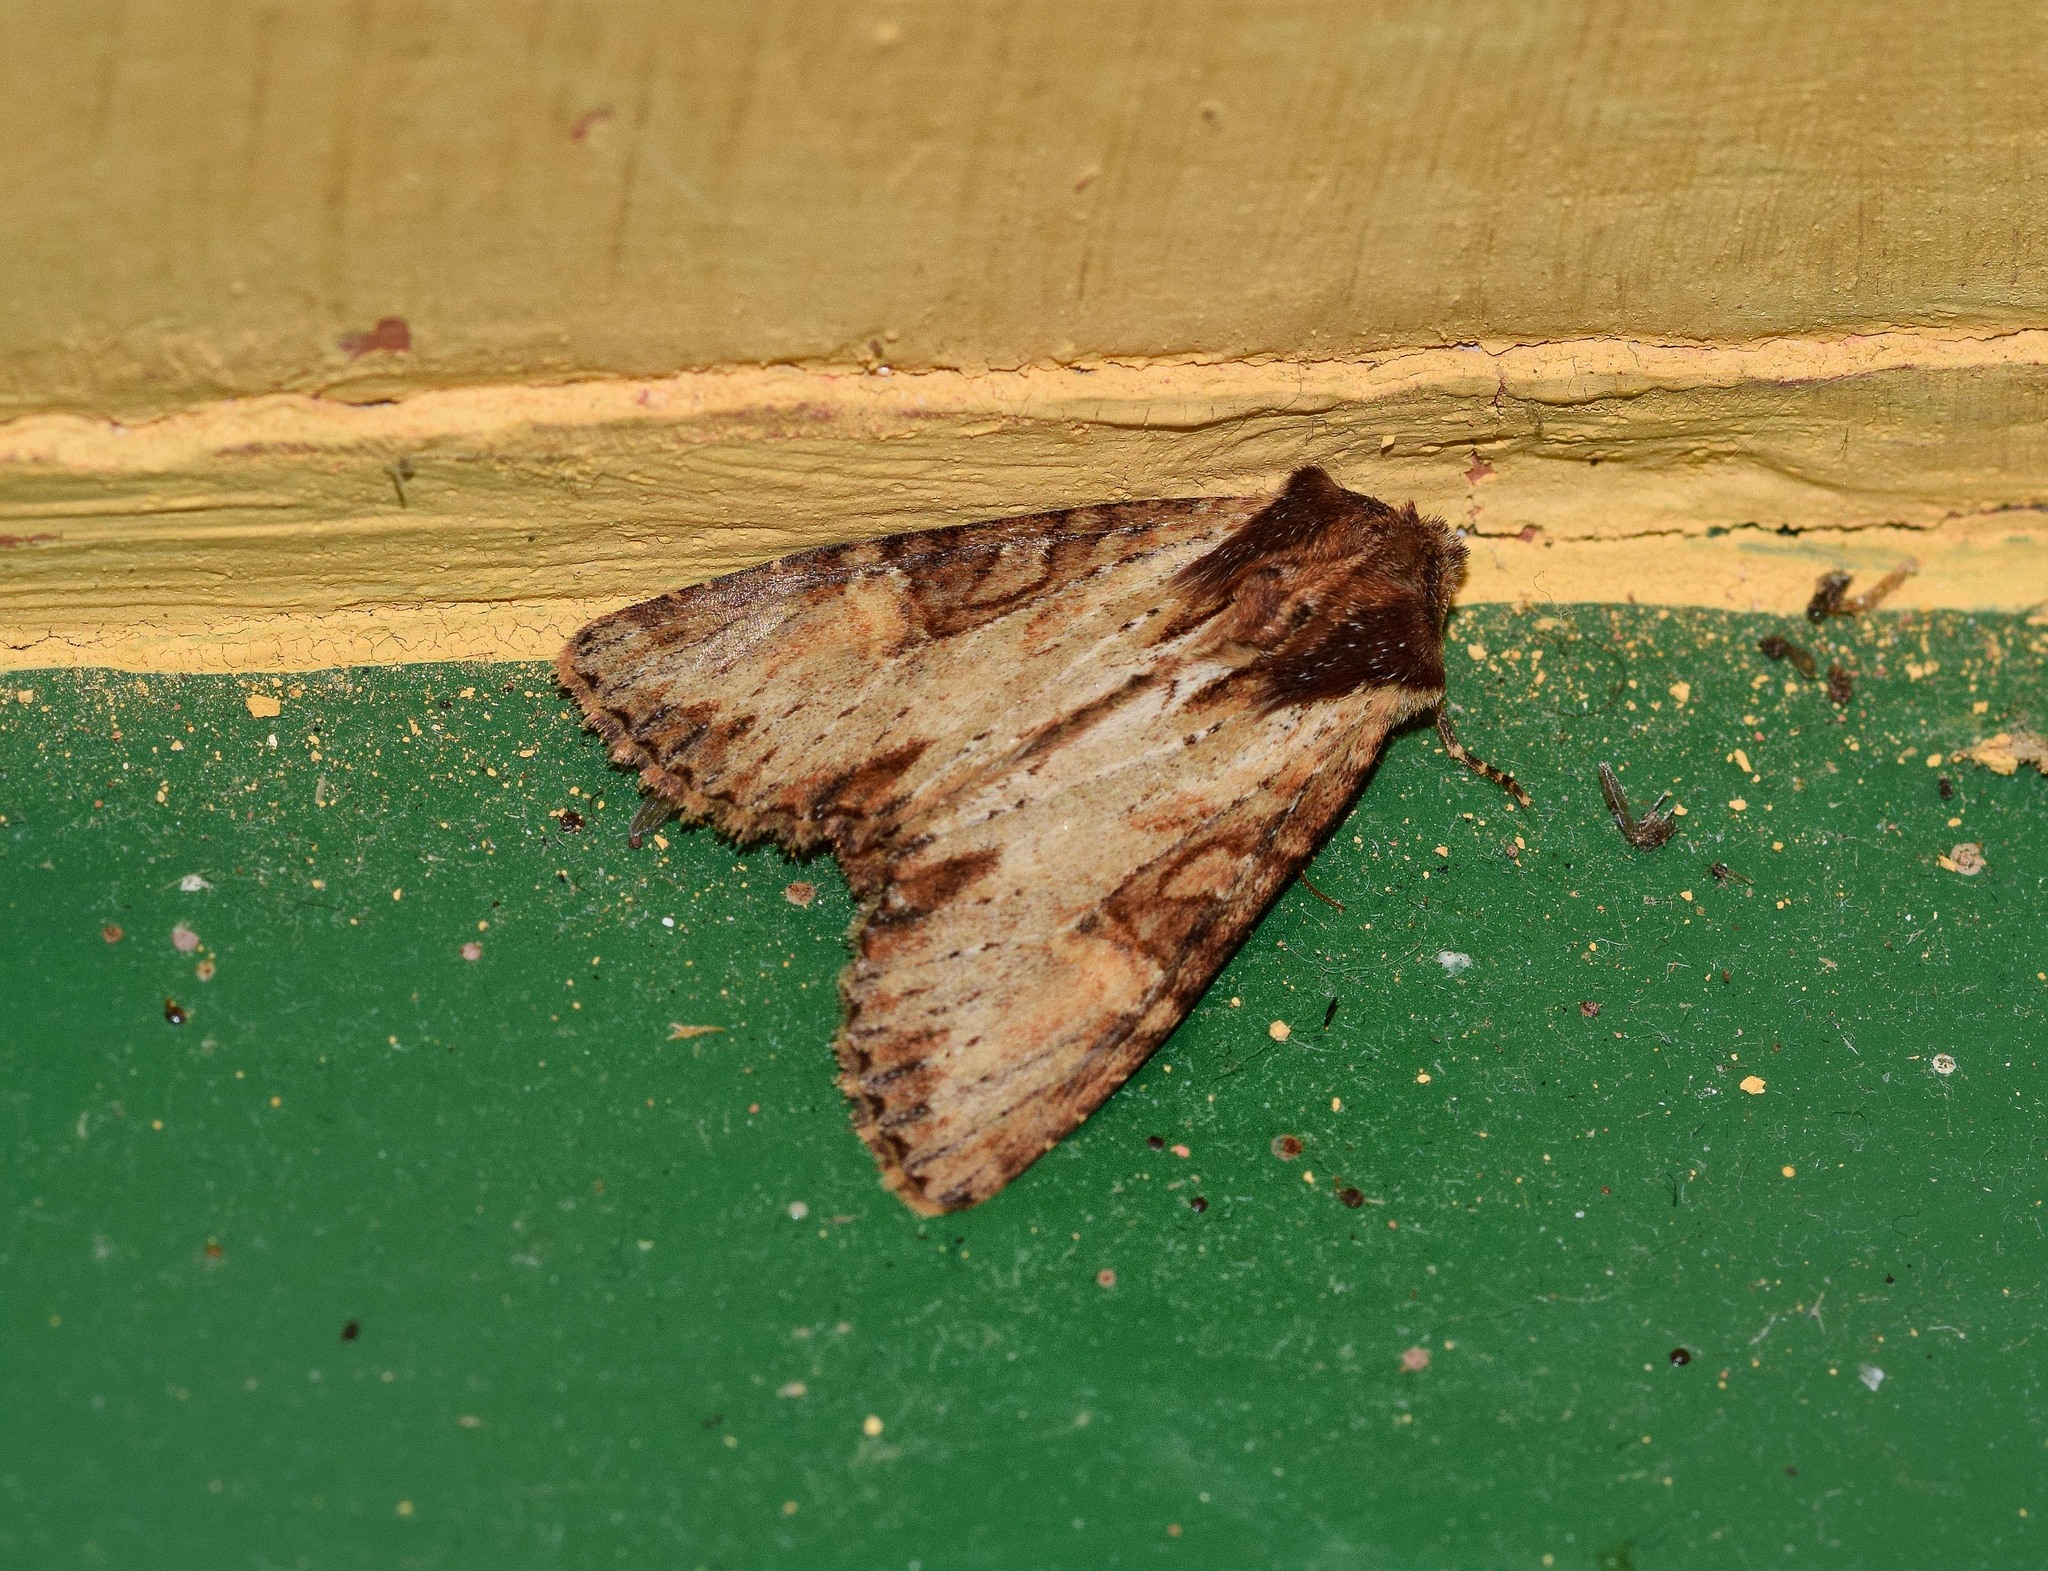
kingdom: Animalia
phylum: Arthropoda
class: Insecta
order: Lepidoptera
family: Noctuidae
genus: Apamea
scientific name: Apamea crenata
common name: Clouded-bordered brindle
